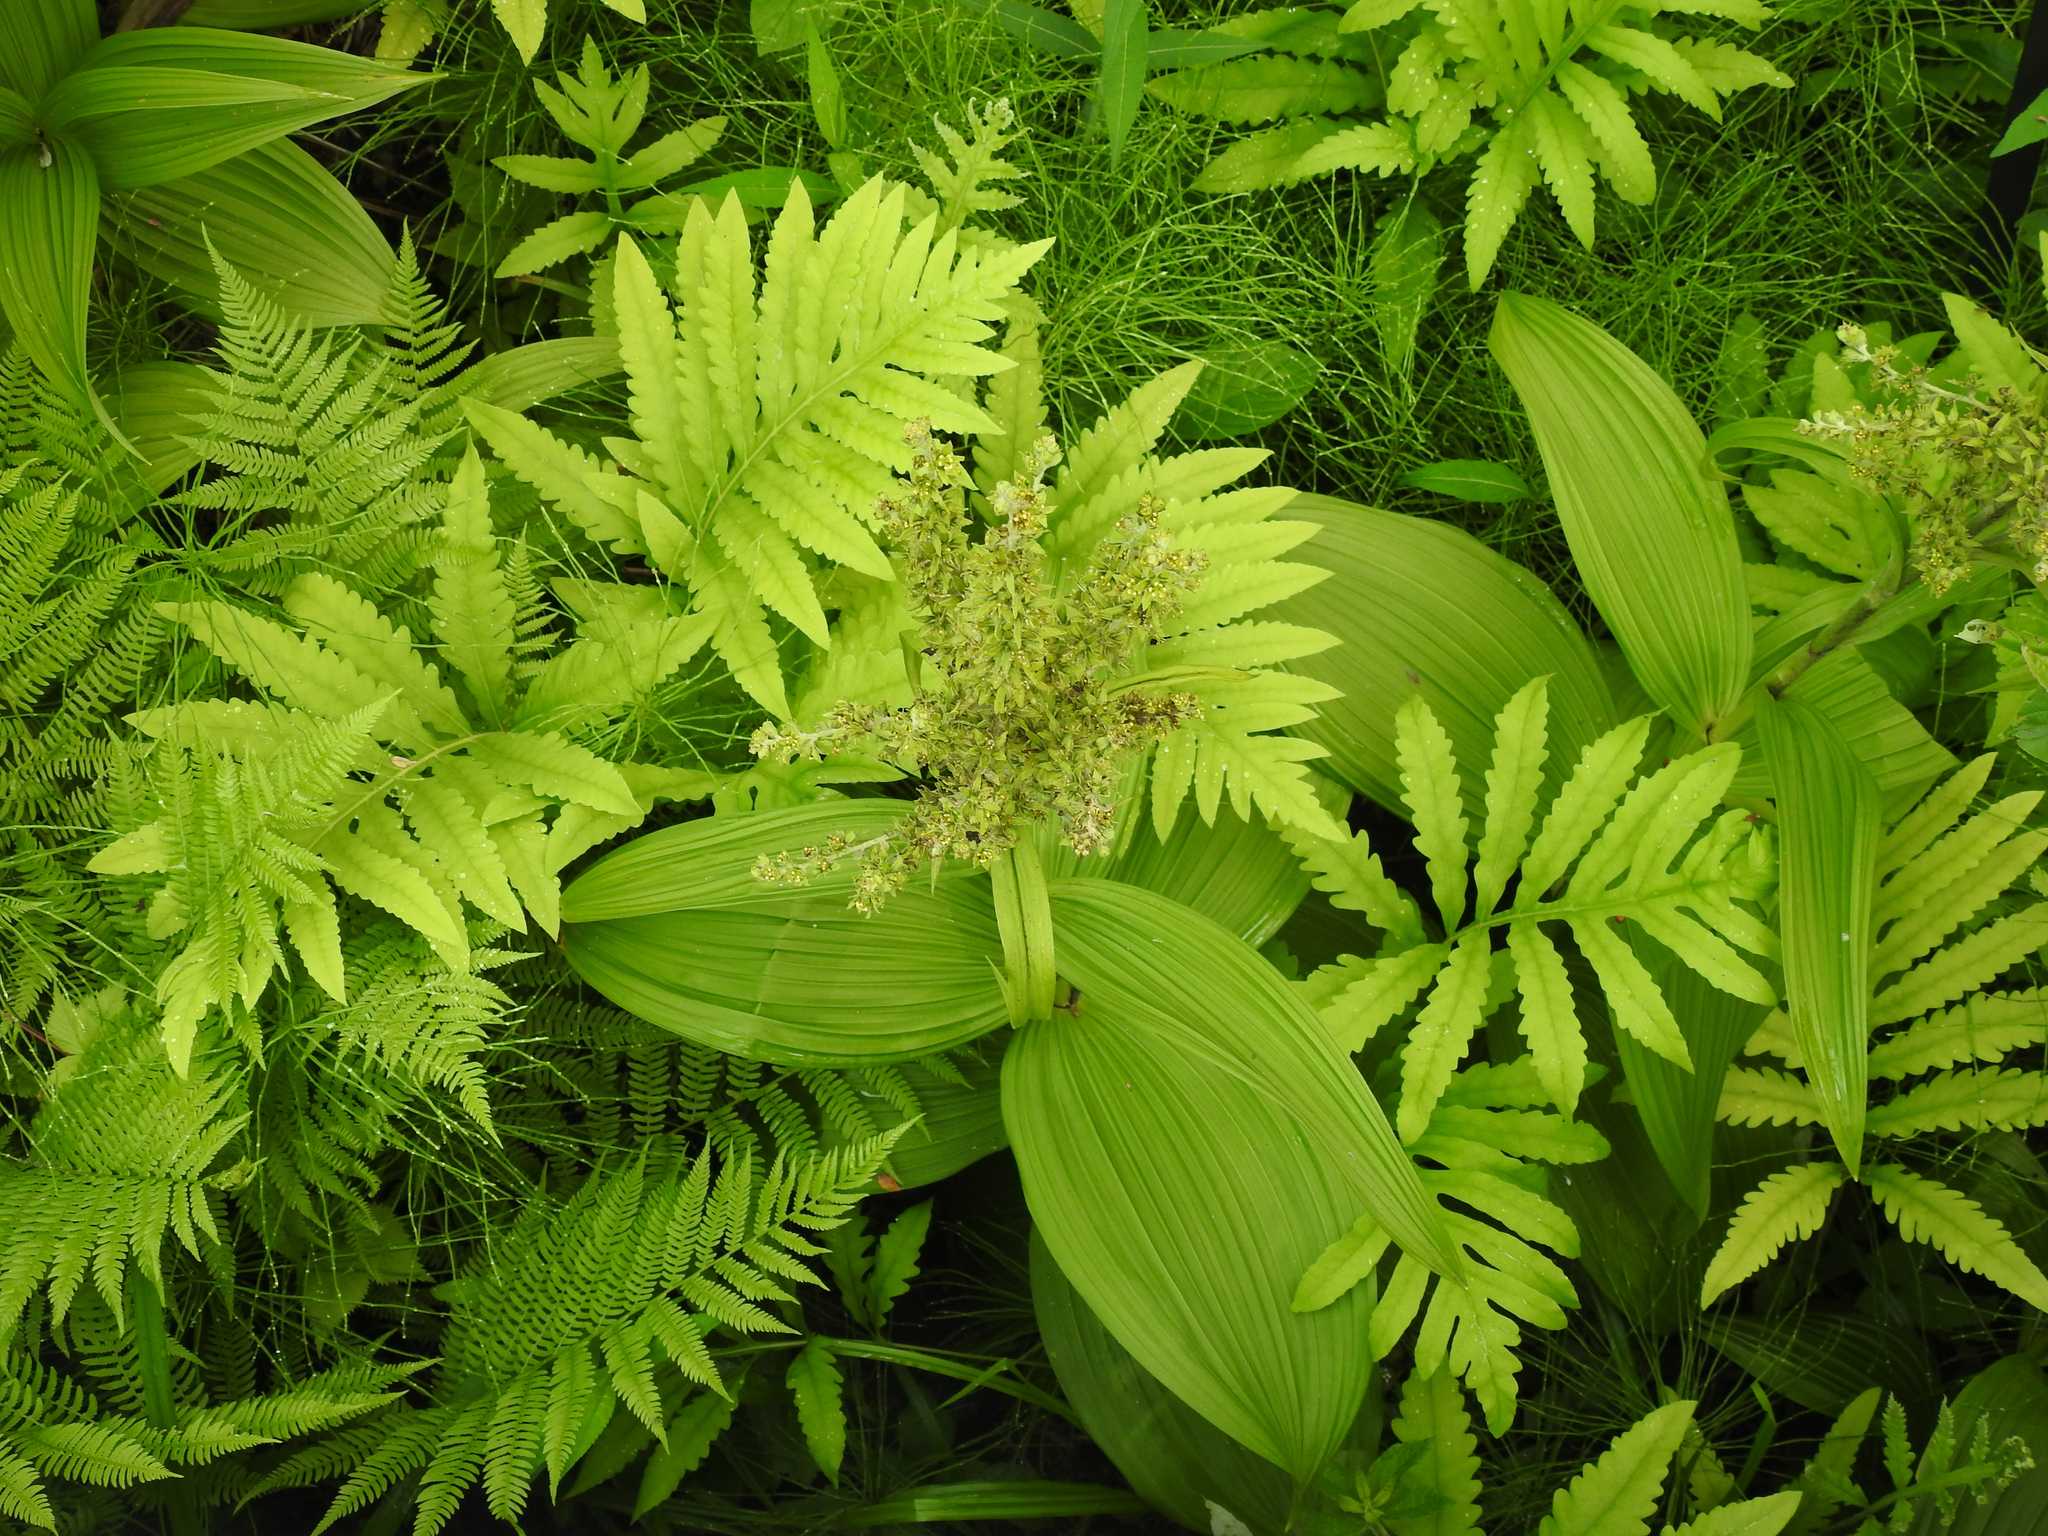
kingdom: Plantae
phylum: Tracheophyta
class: Liliopsida
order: Liliales
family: Melanthiaceae
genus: Veratrum
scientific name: Veratrum viride
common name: American false hellebore
